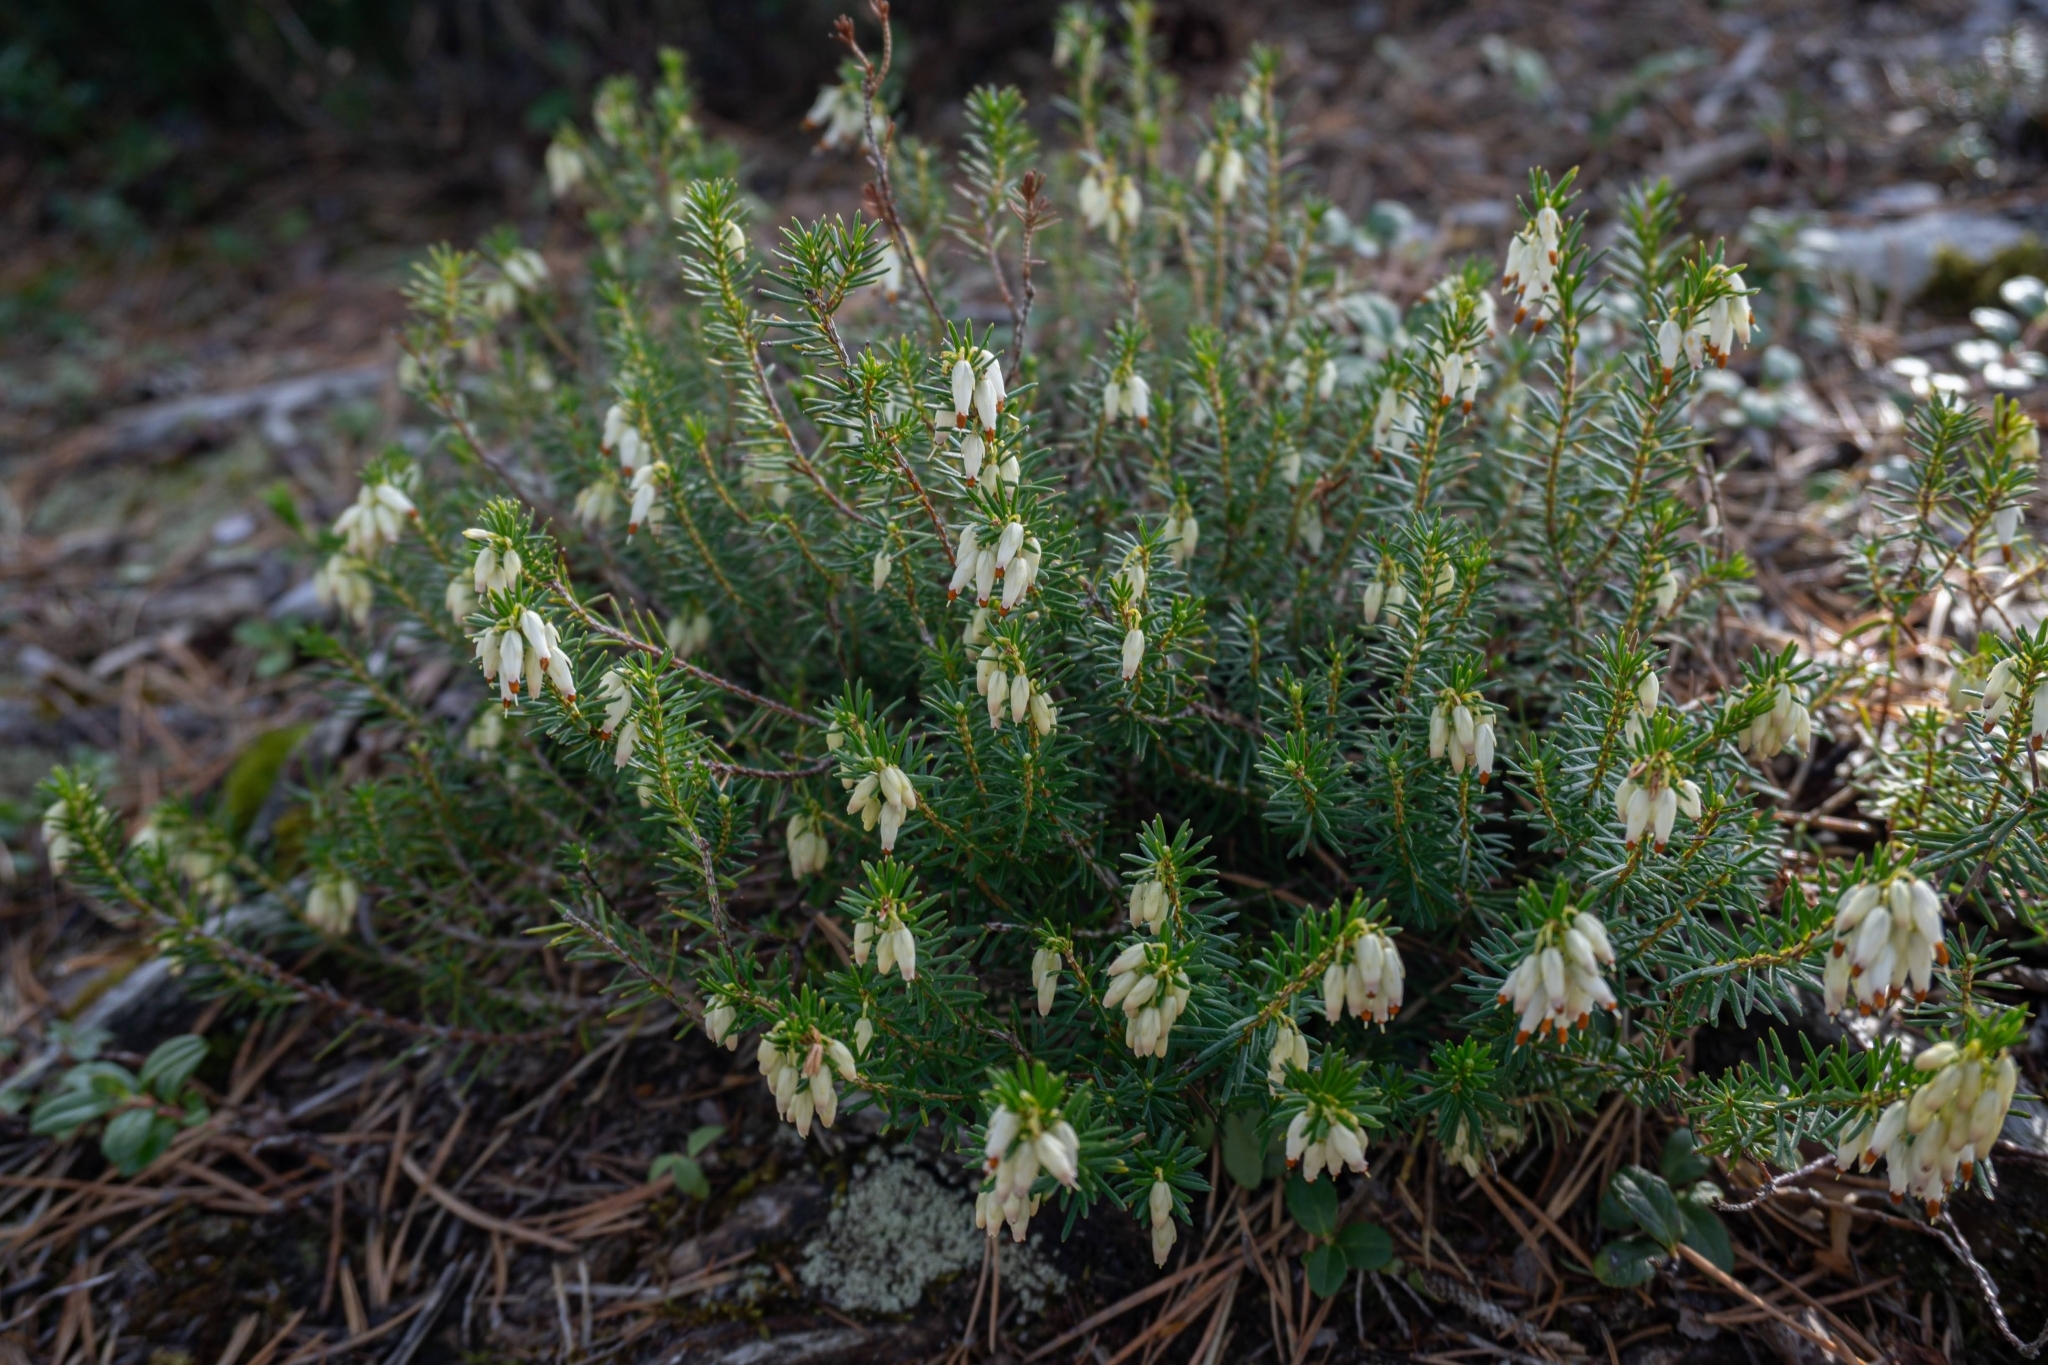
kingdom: Plantae
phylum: Tracheophyta
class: Magnoliopsida
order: Ericales
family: Ericaceae
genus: Erica
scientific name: Erica carnea
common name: Winter heath
